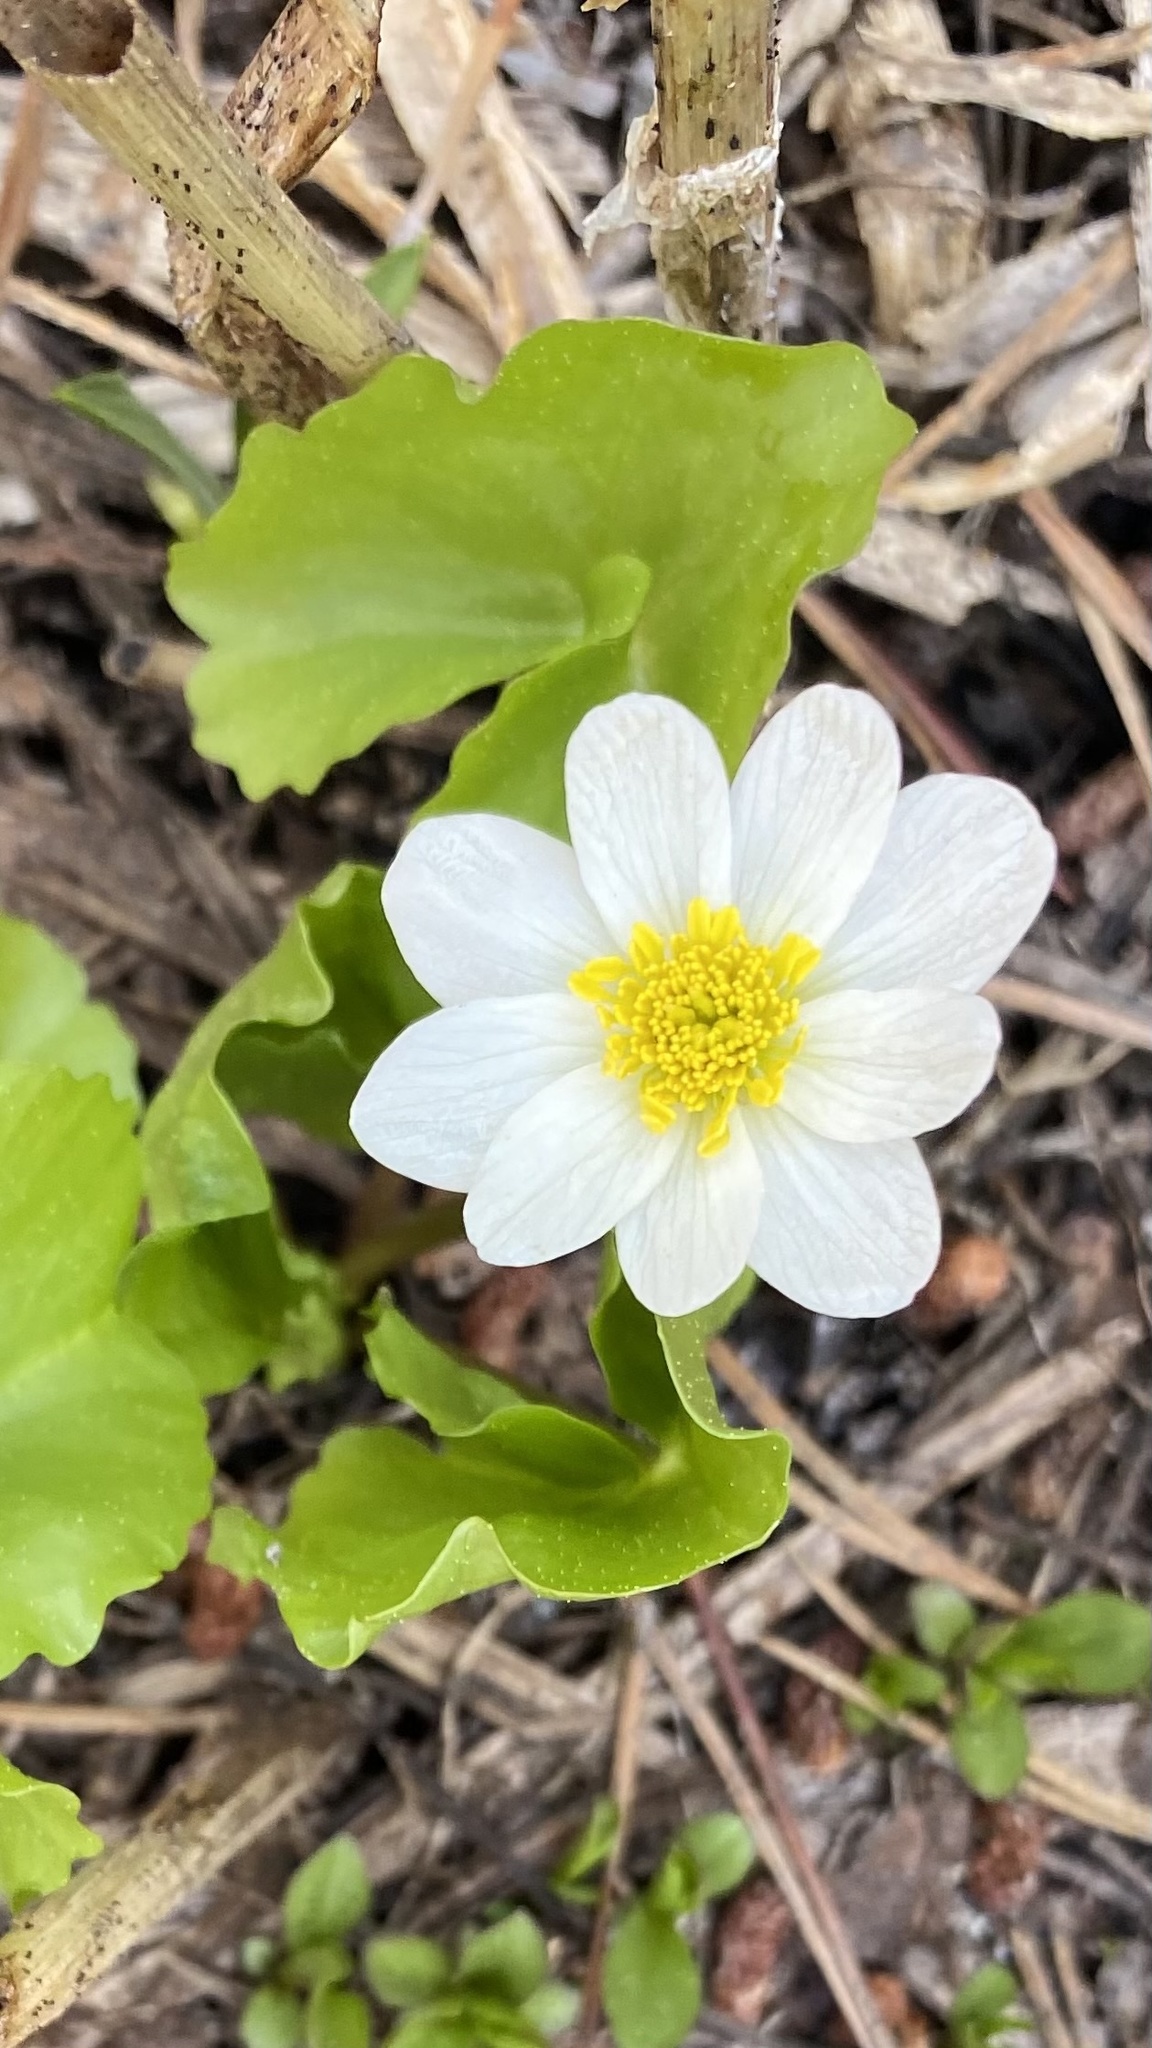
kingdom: Plantae
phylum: Tracheophyta
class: Magnoliopsida
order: Ranunculales
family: Ranunculaceae
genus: Caltha
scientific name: Caltha leptosepala
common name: Elkslip
